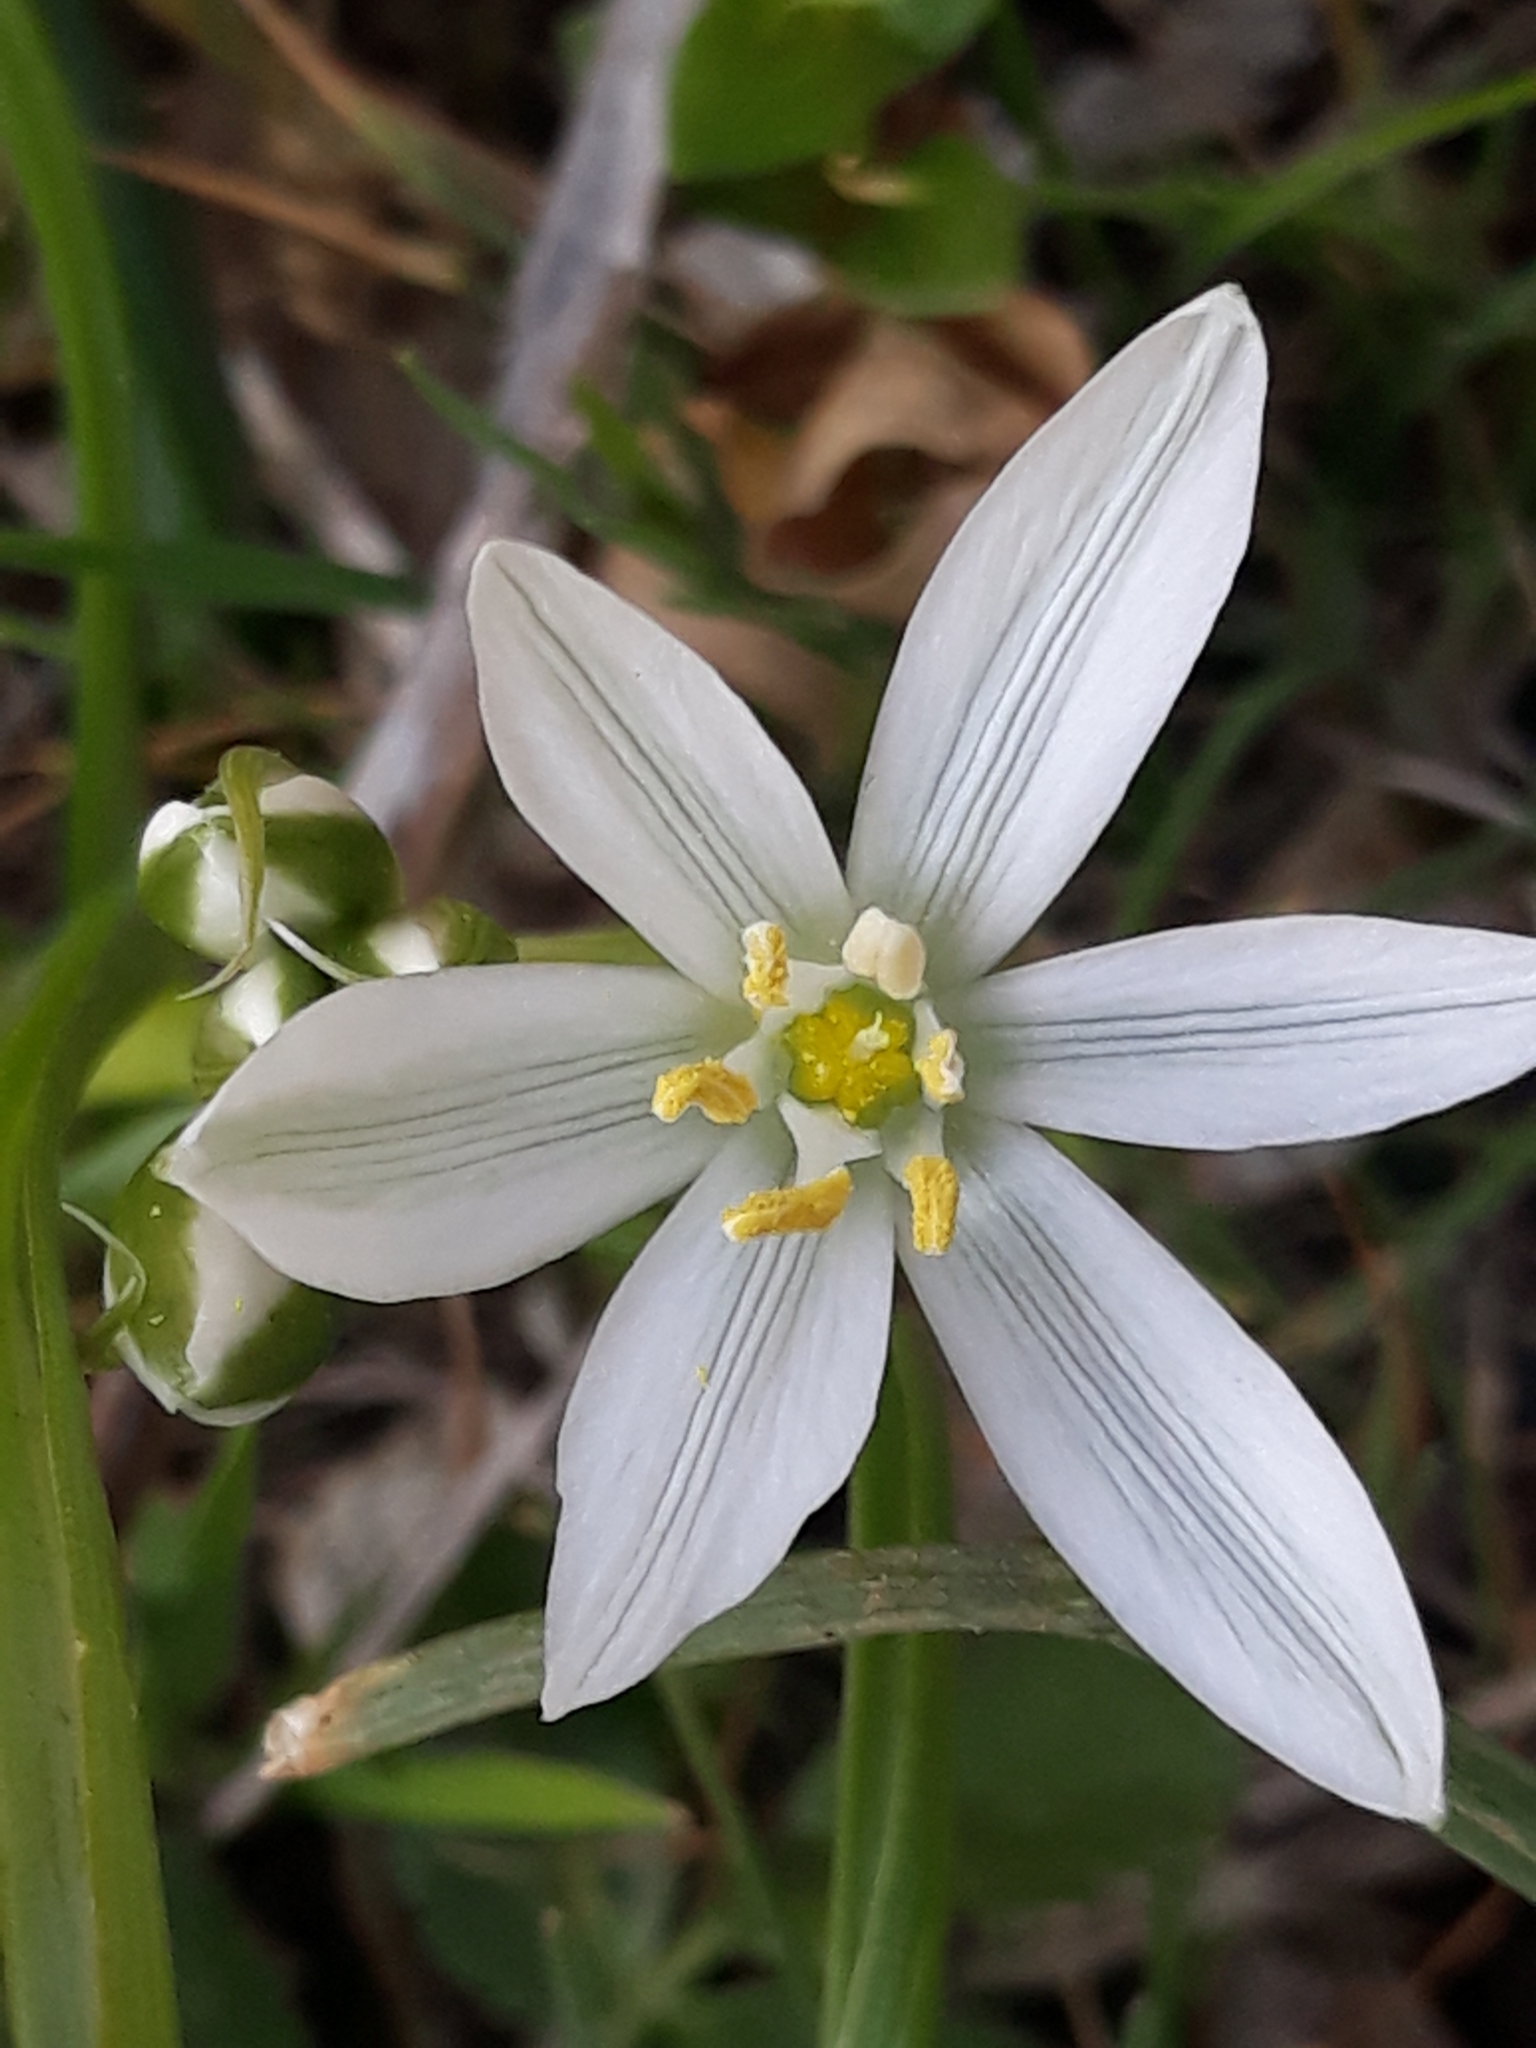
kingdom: Plantae
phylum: Tracheophyta
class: Liliopsida
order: Asparagales
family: Asparagaceae
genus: Ornithogalum
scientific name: Ornithogalum baeticum
